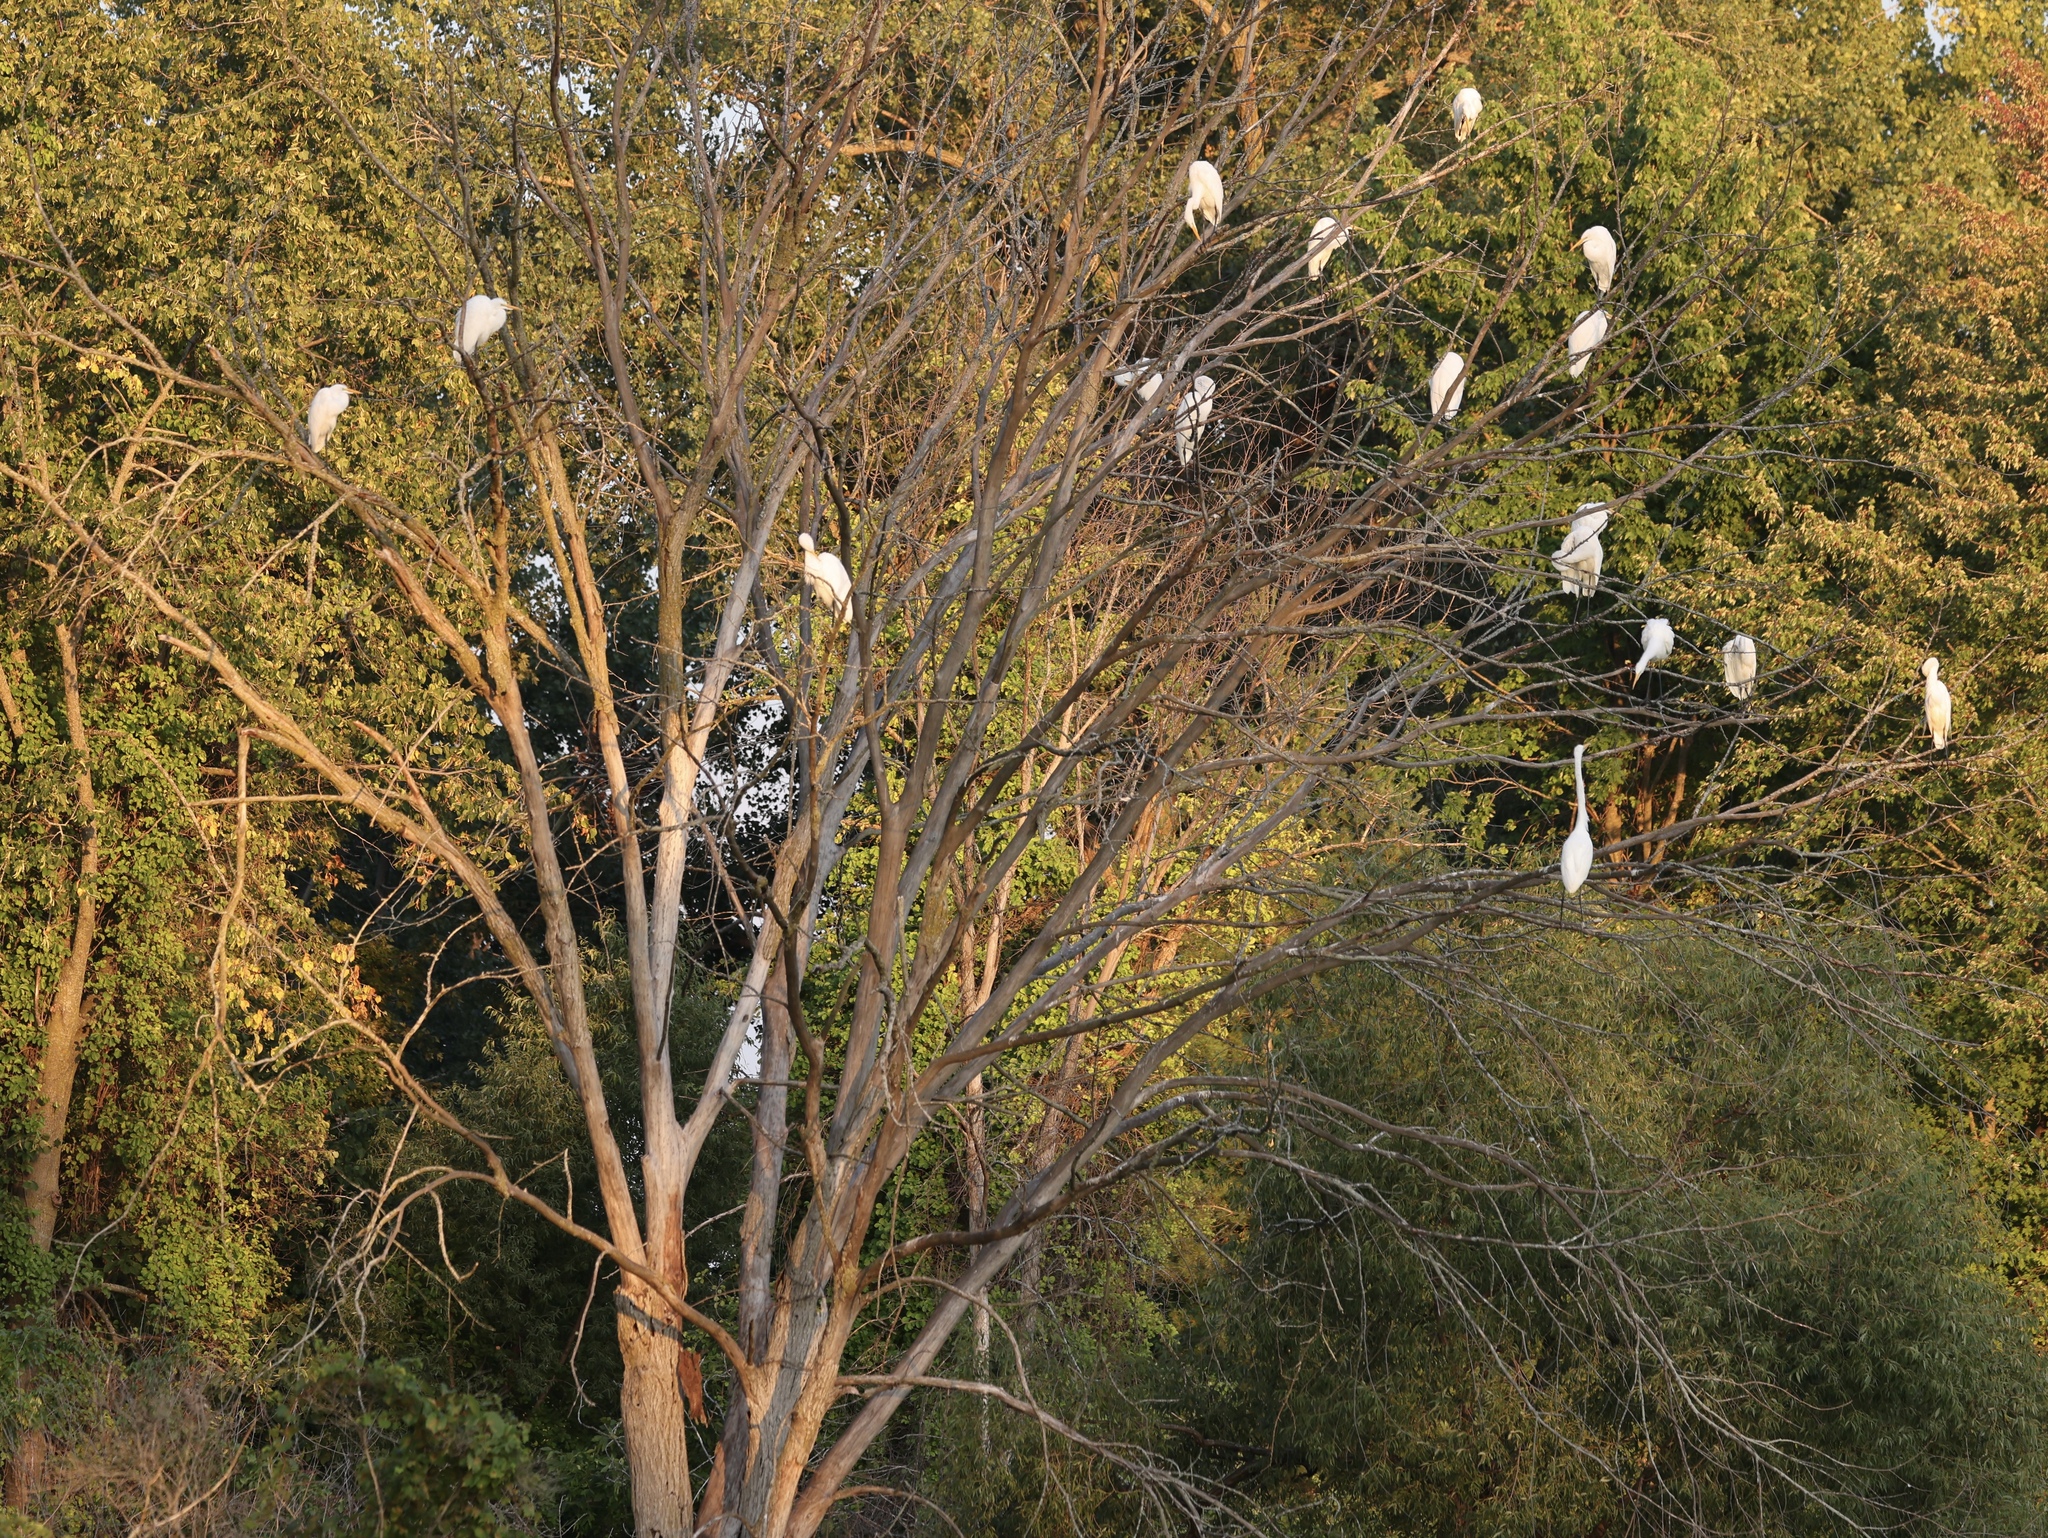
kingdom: Animalia
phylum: Chordata
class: Aves
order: Pelecaniformes
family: Ardeidae
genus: Ardea
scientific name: Ardea alba
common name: Great egret
